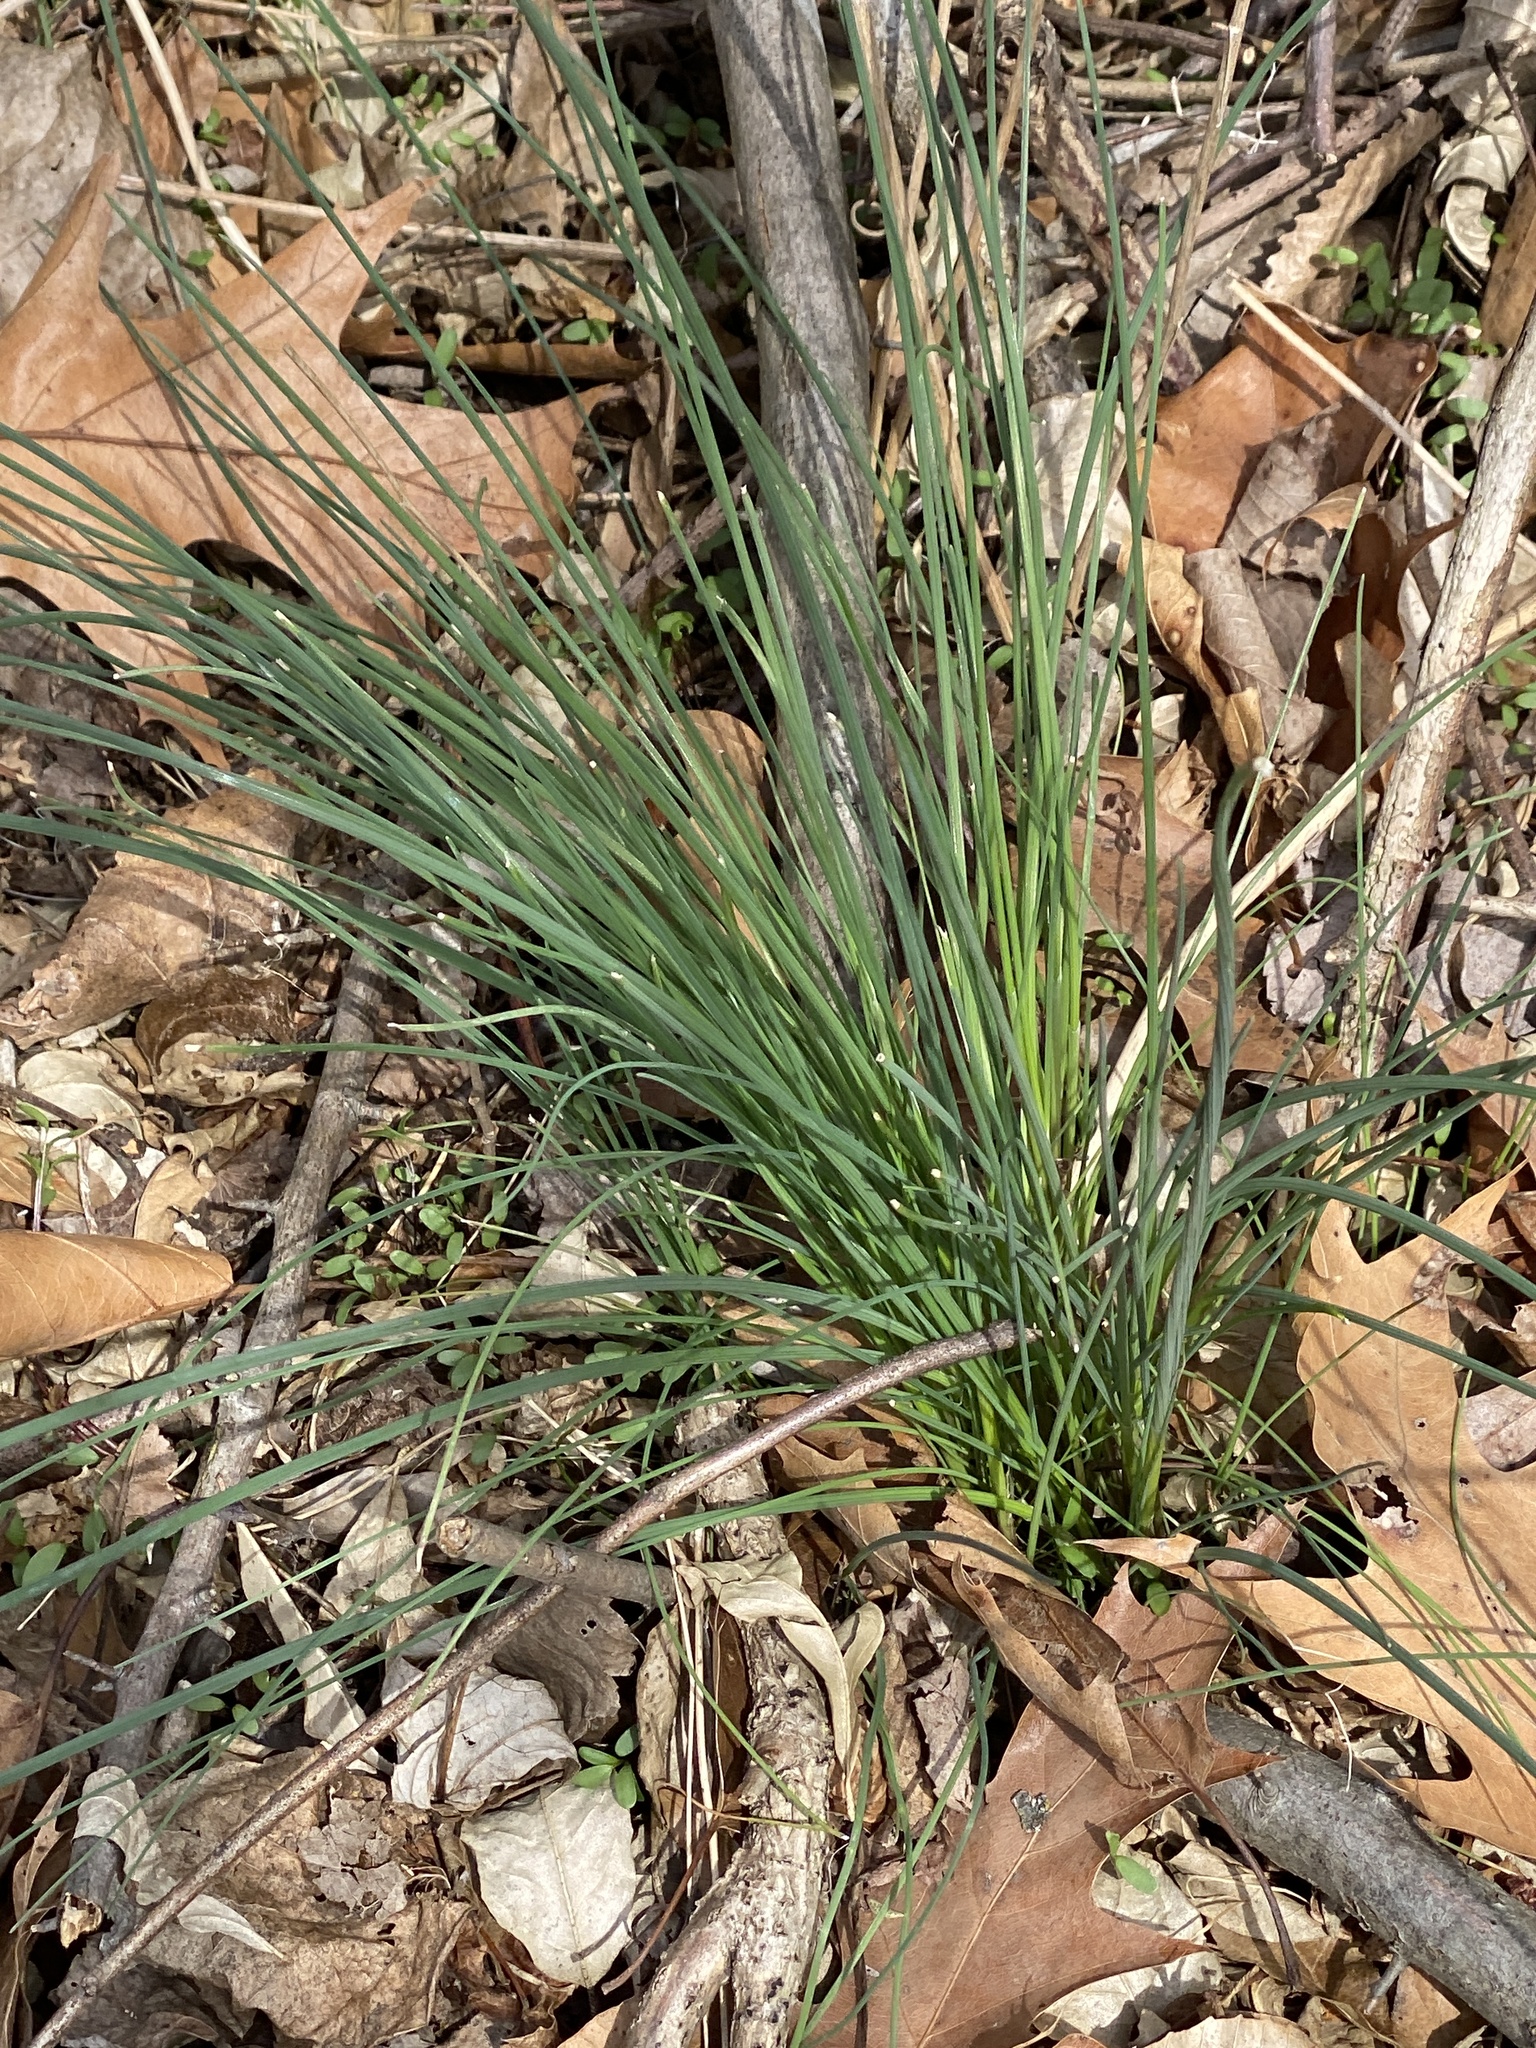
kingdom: Plantae
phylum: Tracheophyta
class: Liliopsida
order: Asparagales
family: Amaryllidaceae
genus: Allium
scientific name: Allium vineale
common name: Crow garlic
